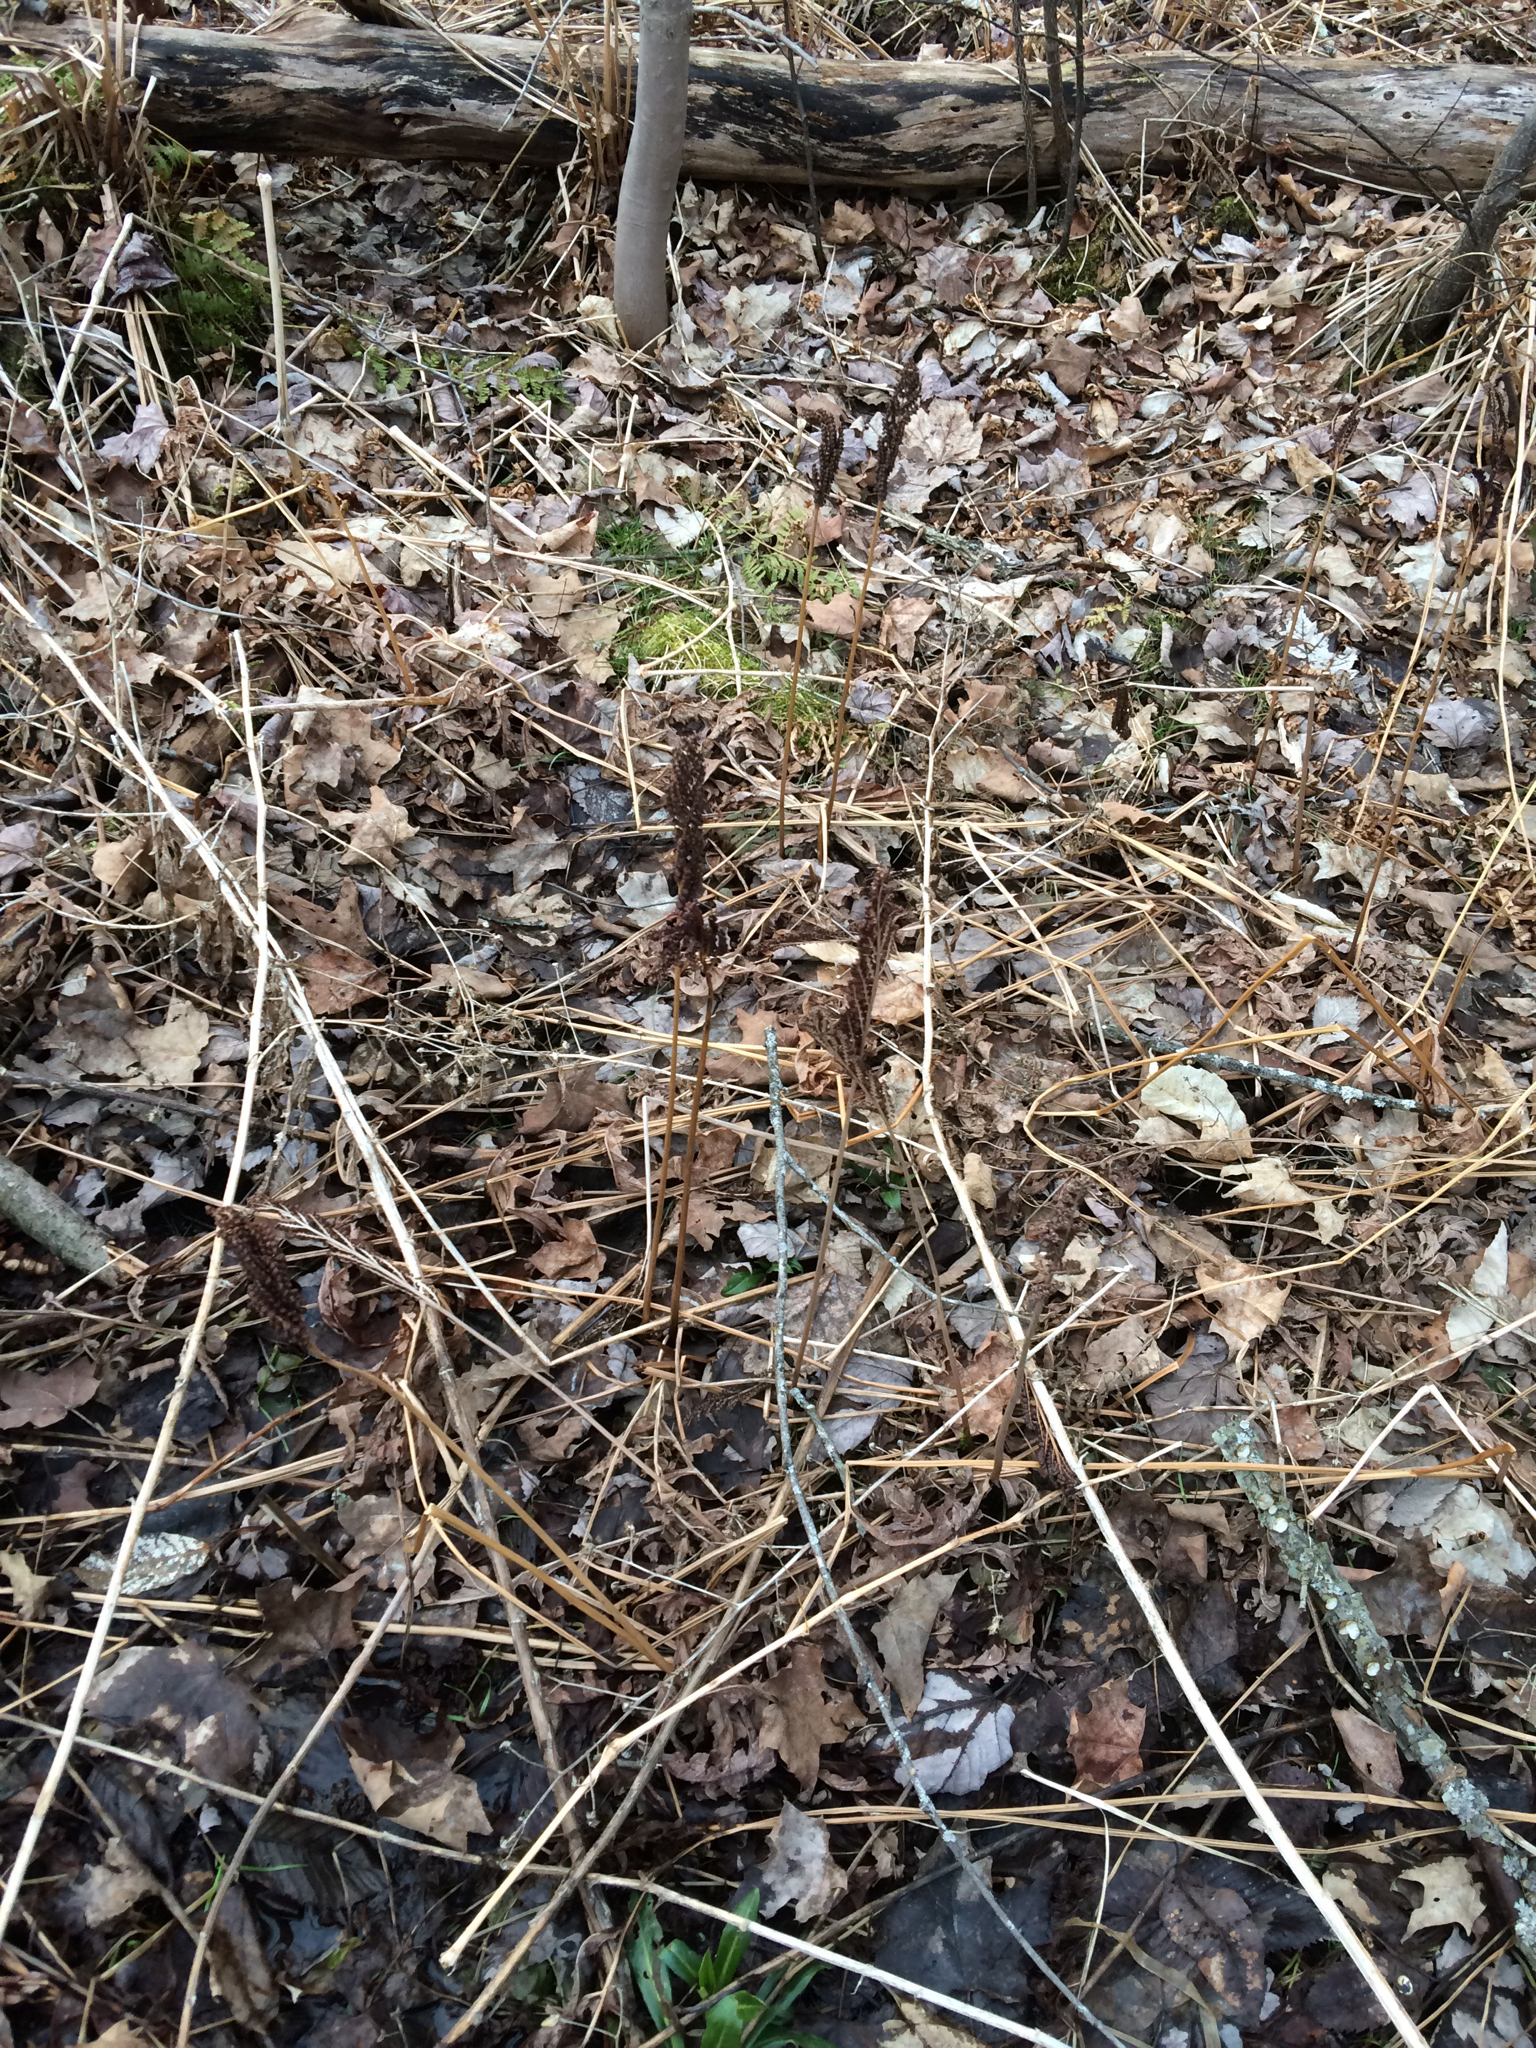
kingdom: Plantae
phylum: Tracheophyta
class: Polypodiopsida
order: Polypodiales
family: Onocleaceae
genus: Onoclea
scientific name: Onoclea sensibilis
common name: Sensitive fern
